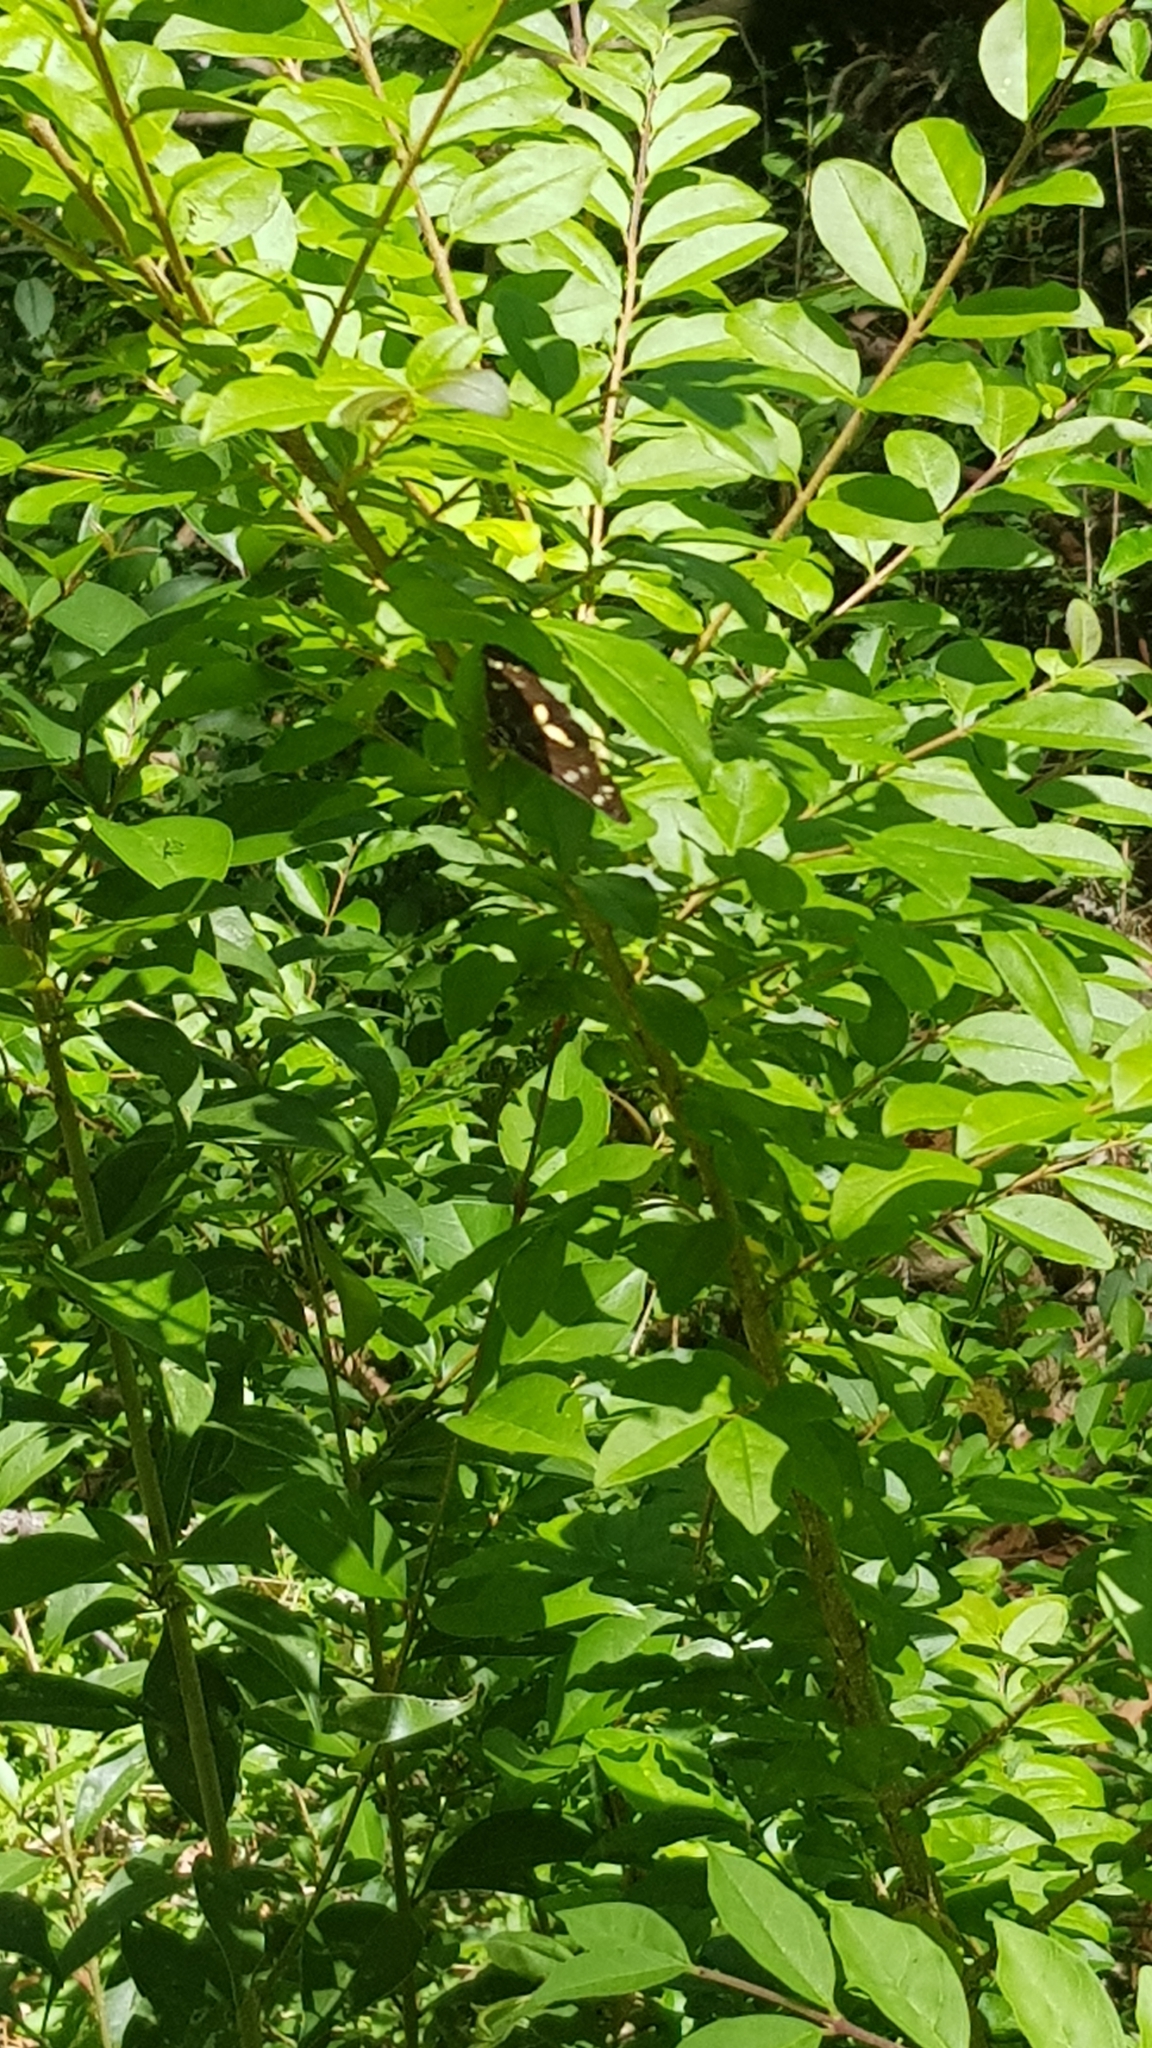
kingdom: Animalia
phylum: Arthropoda
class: Insecta
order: Lepidoptera
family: Noctuidae
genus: Cruria
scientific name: Cruria synopla
